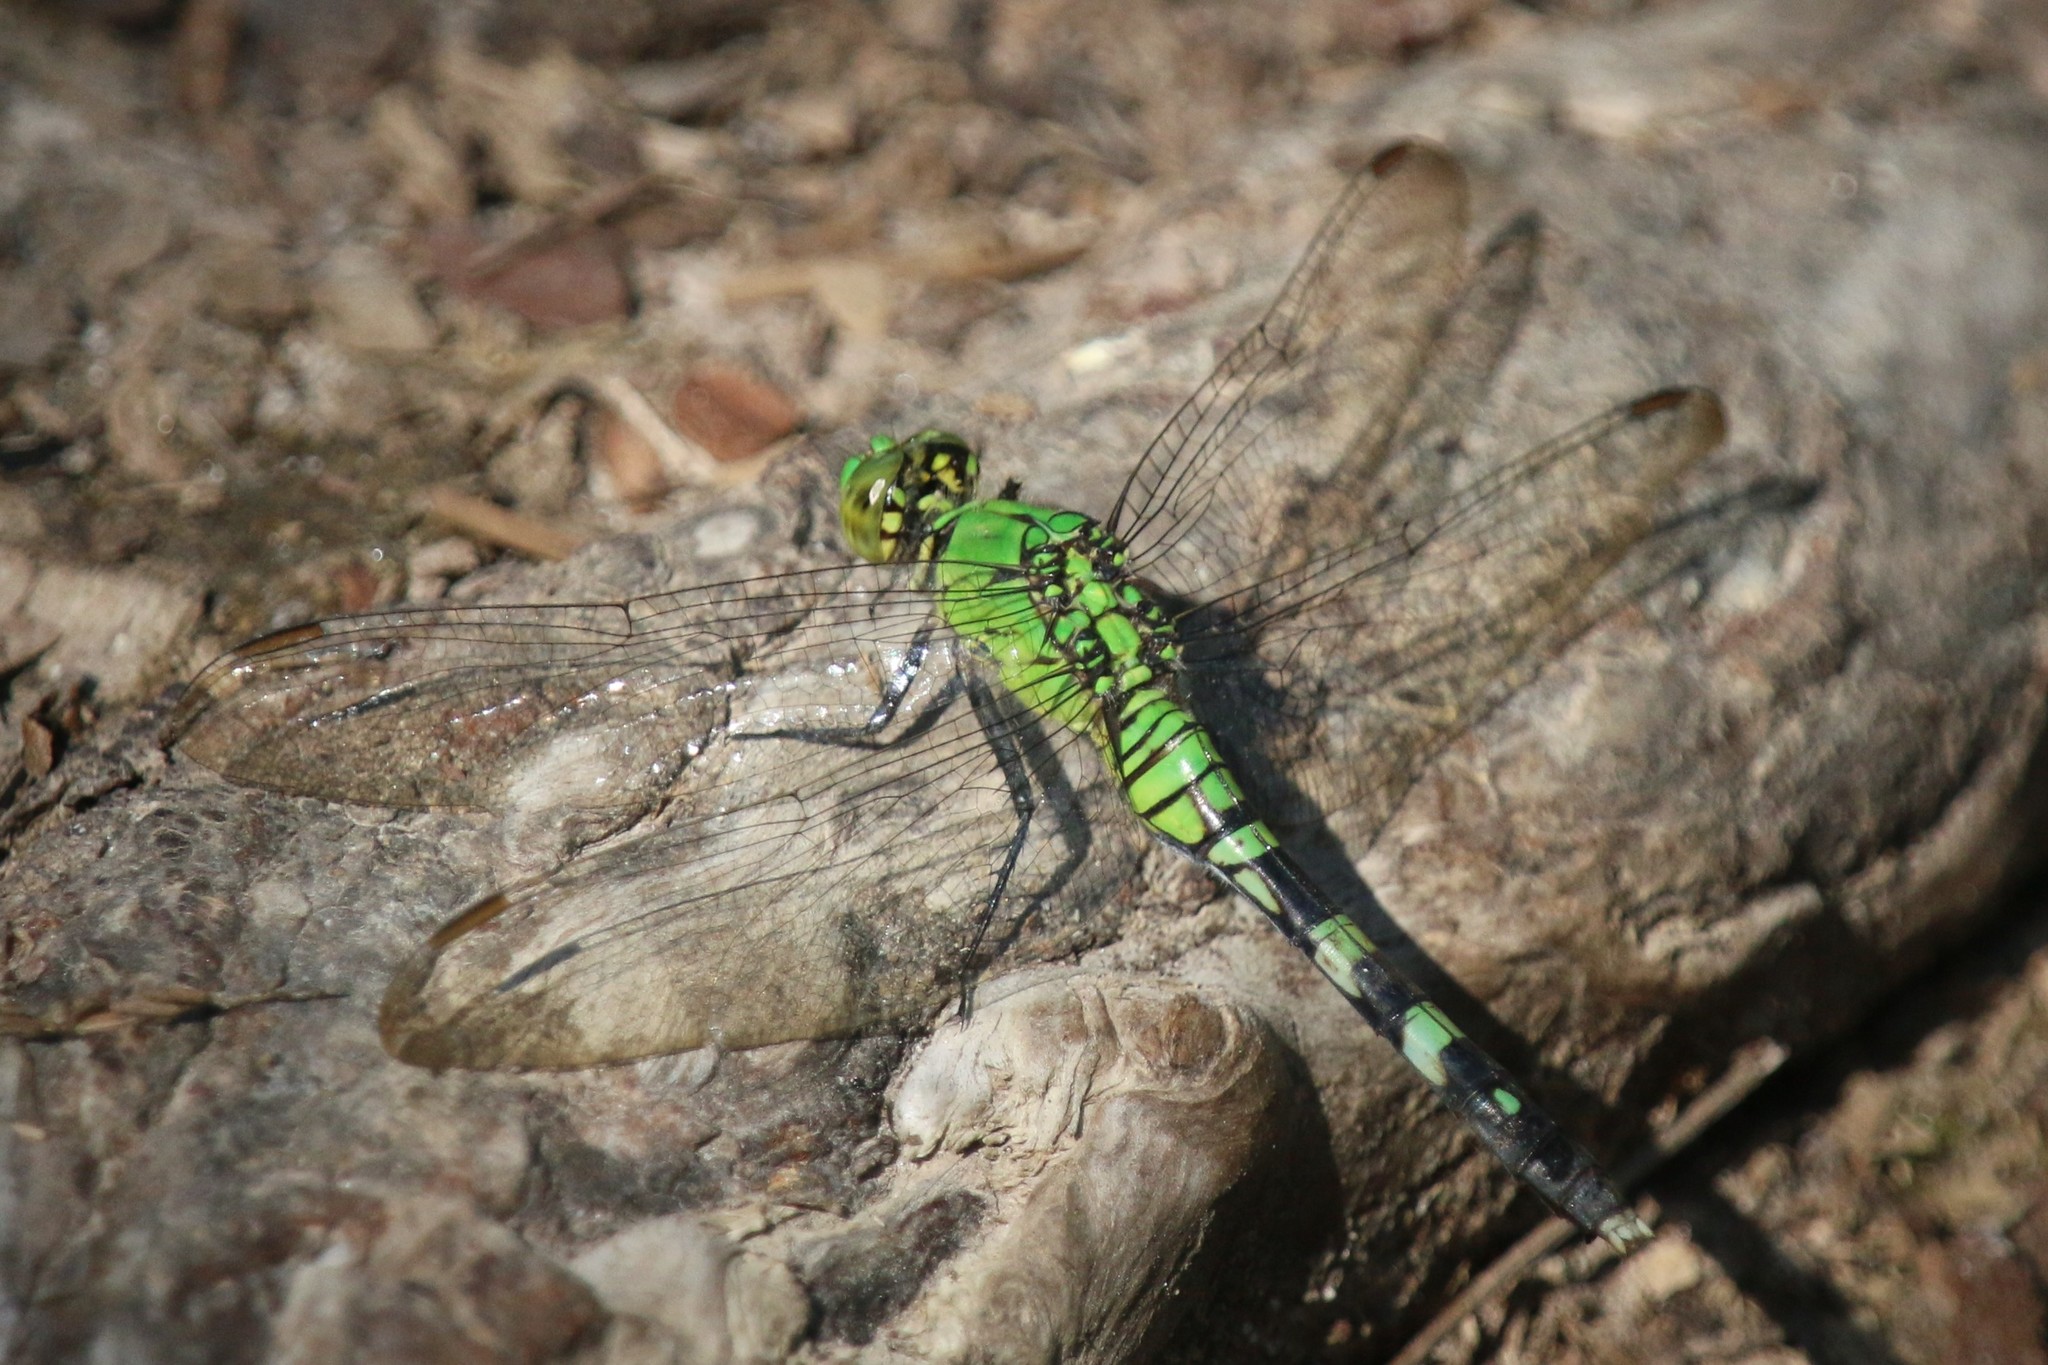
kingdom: Animalia
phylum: Arthropoda
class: Insecta
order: Odonata
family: Libellulidae
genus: Erythemis
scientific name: Erythemis simplicicollis
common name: Eastern pondhawk
